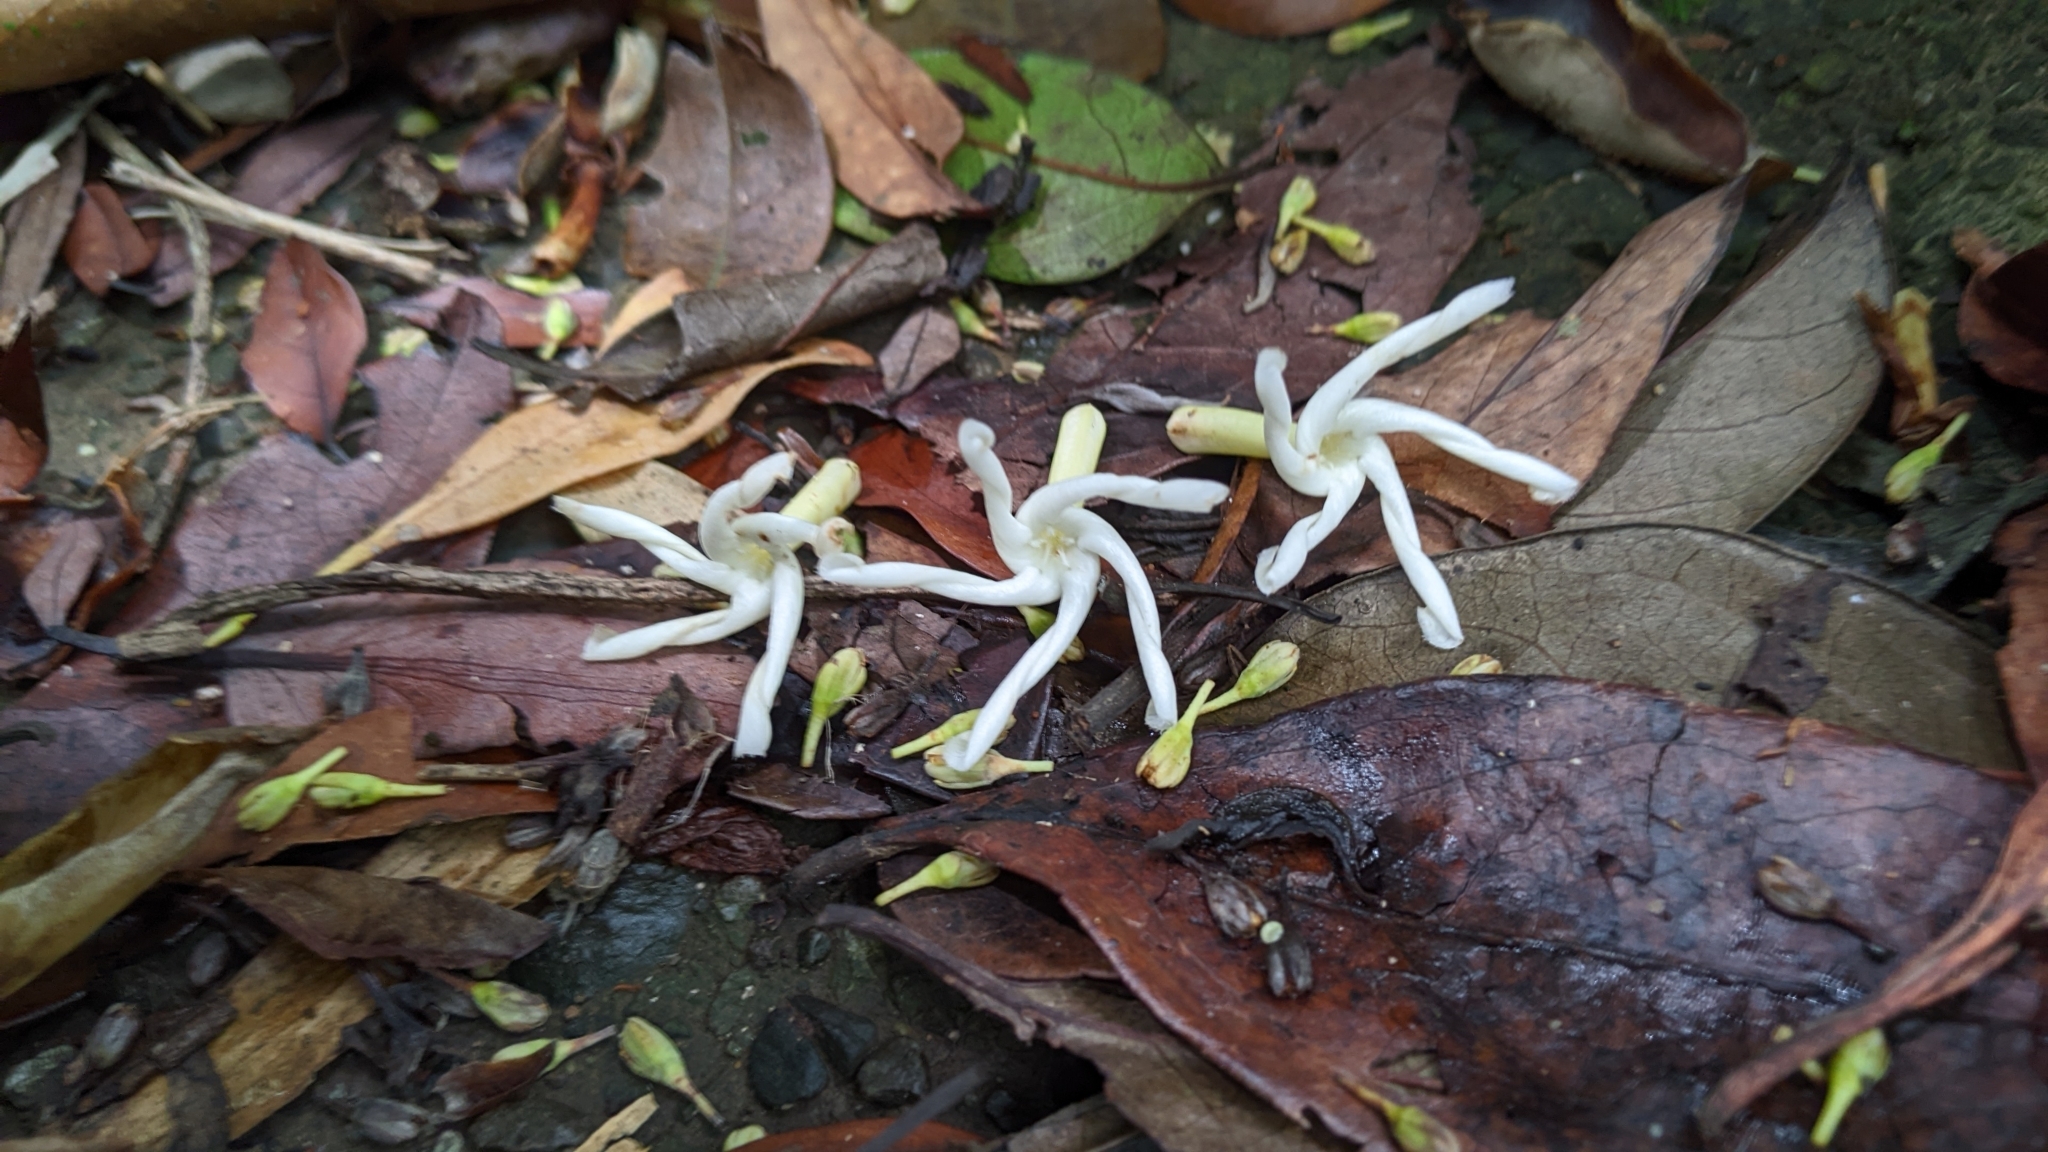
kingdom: Plantae
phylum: Tracheophyta
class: Magnoliopsida
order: Gentianales
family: Apocynaceae
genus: Anodendron
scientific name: Anodendron benthamianum
